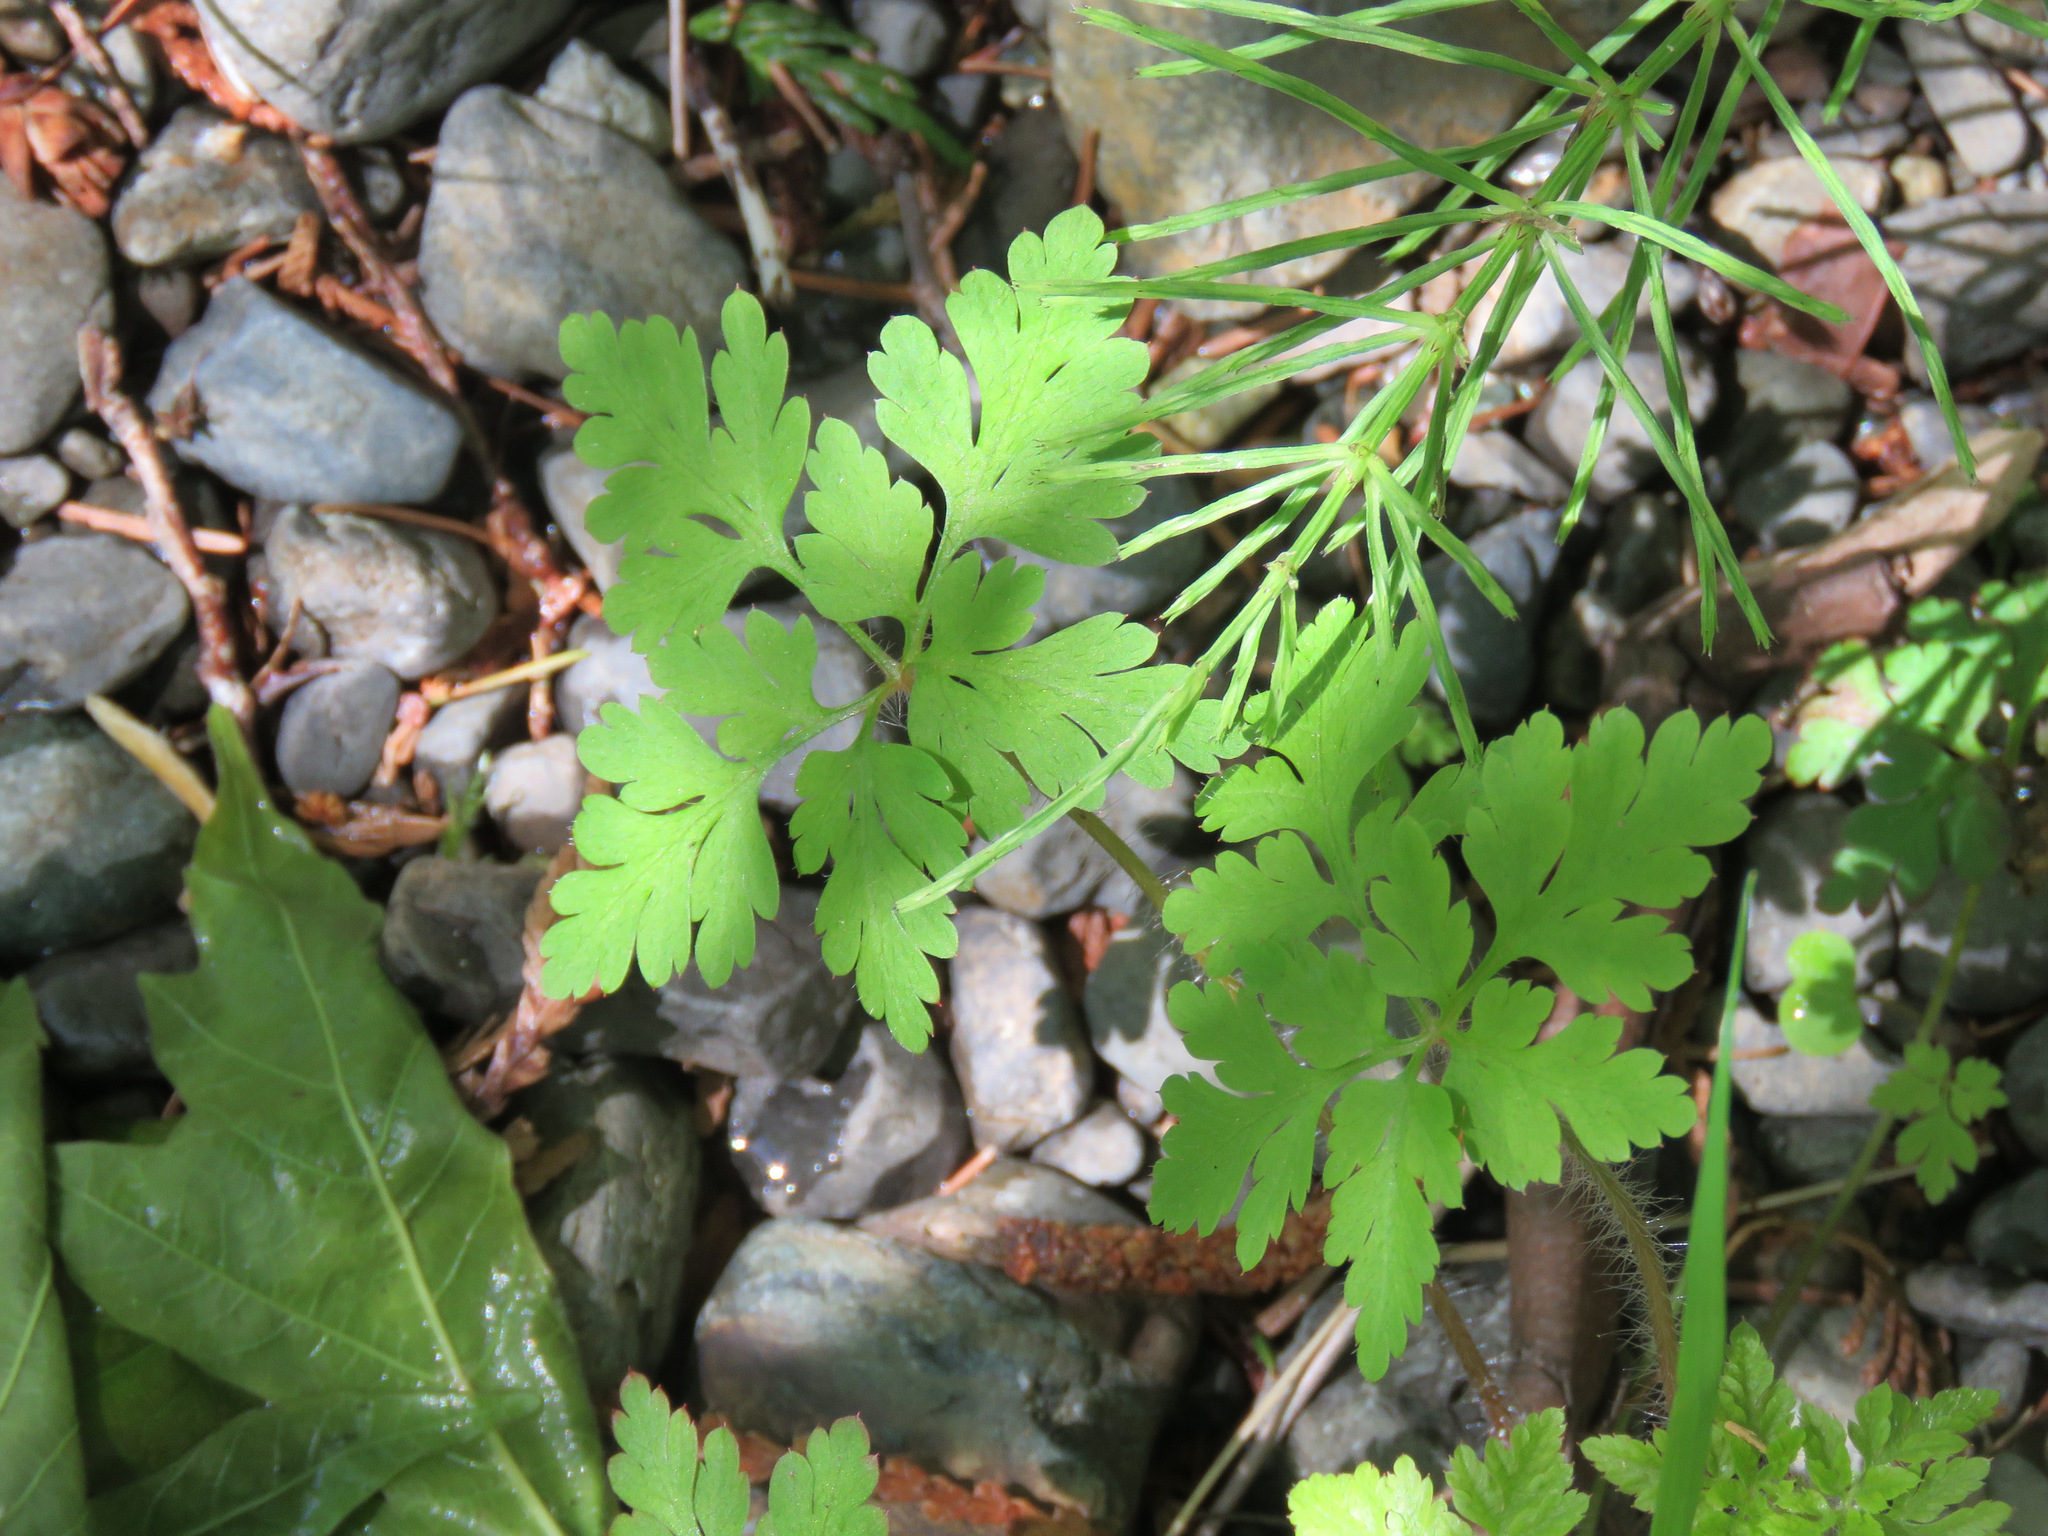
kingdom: Plantae
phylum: Tracheophyta
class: Magnoliopsida
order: Geraniales
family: Geraniaceae
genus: Geranium
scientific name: Geranium robertianum
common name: Herb-robert
